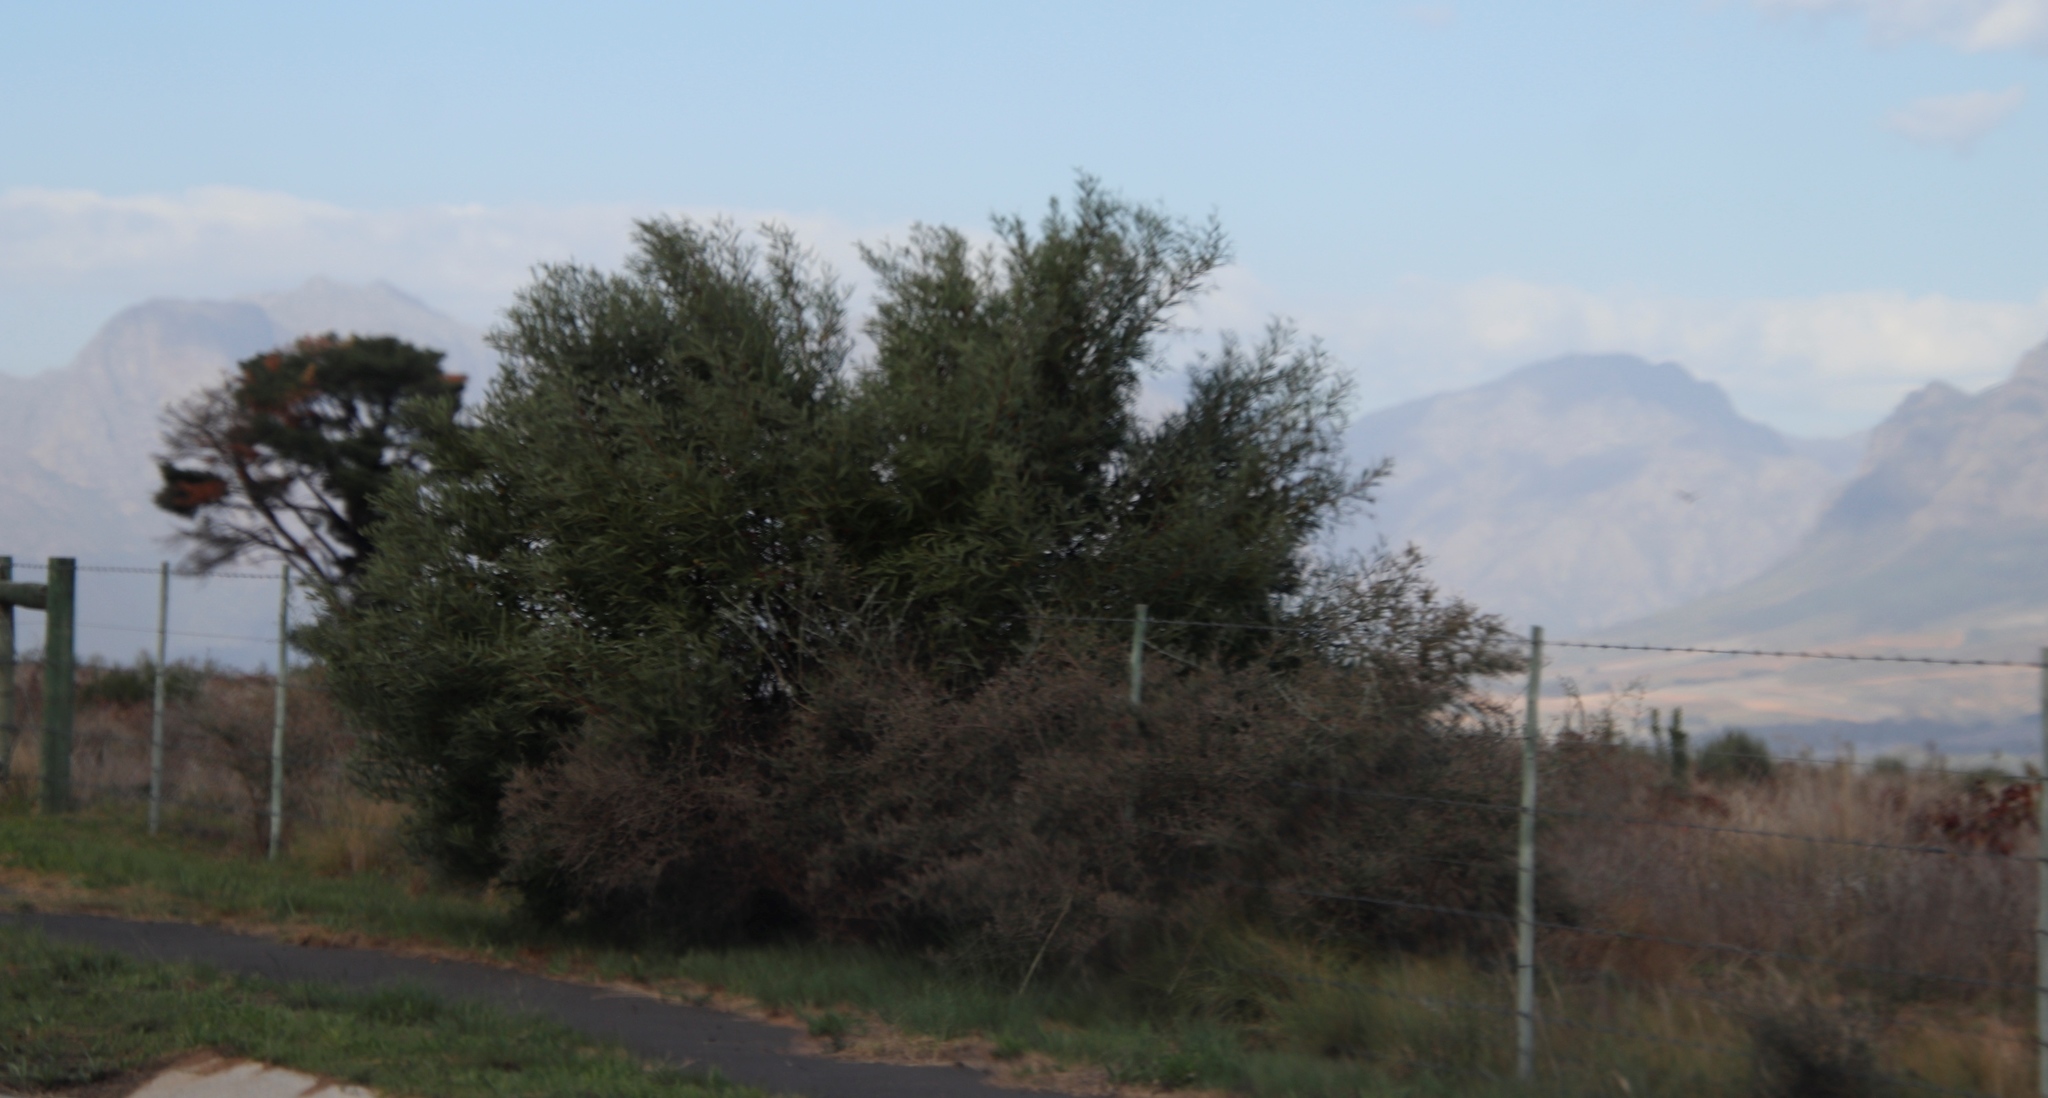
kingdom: Plantae
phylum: Tracheophyta
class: Magnoliopsida
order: Fabales
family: Fabaceae
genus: Acacia
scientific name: Acacia longifolia
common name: Sydney golden wattle
